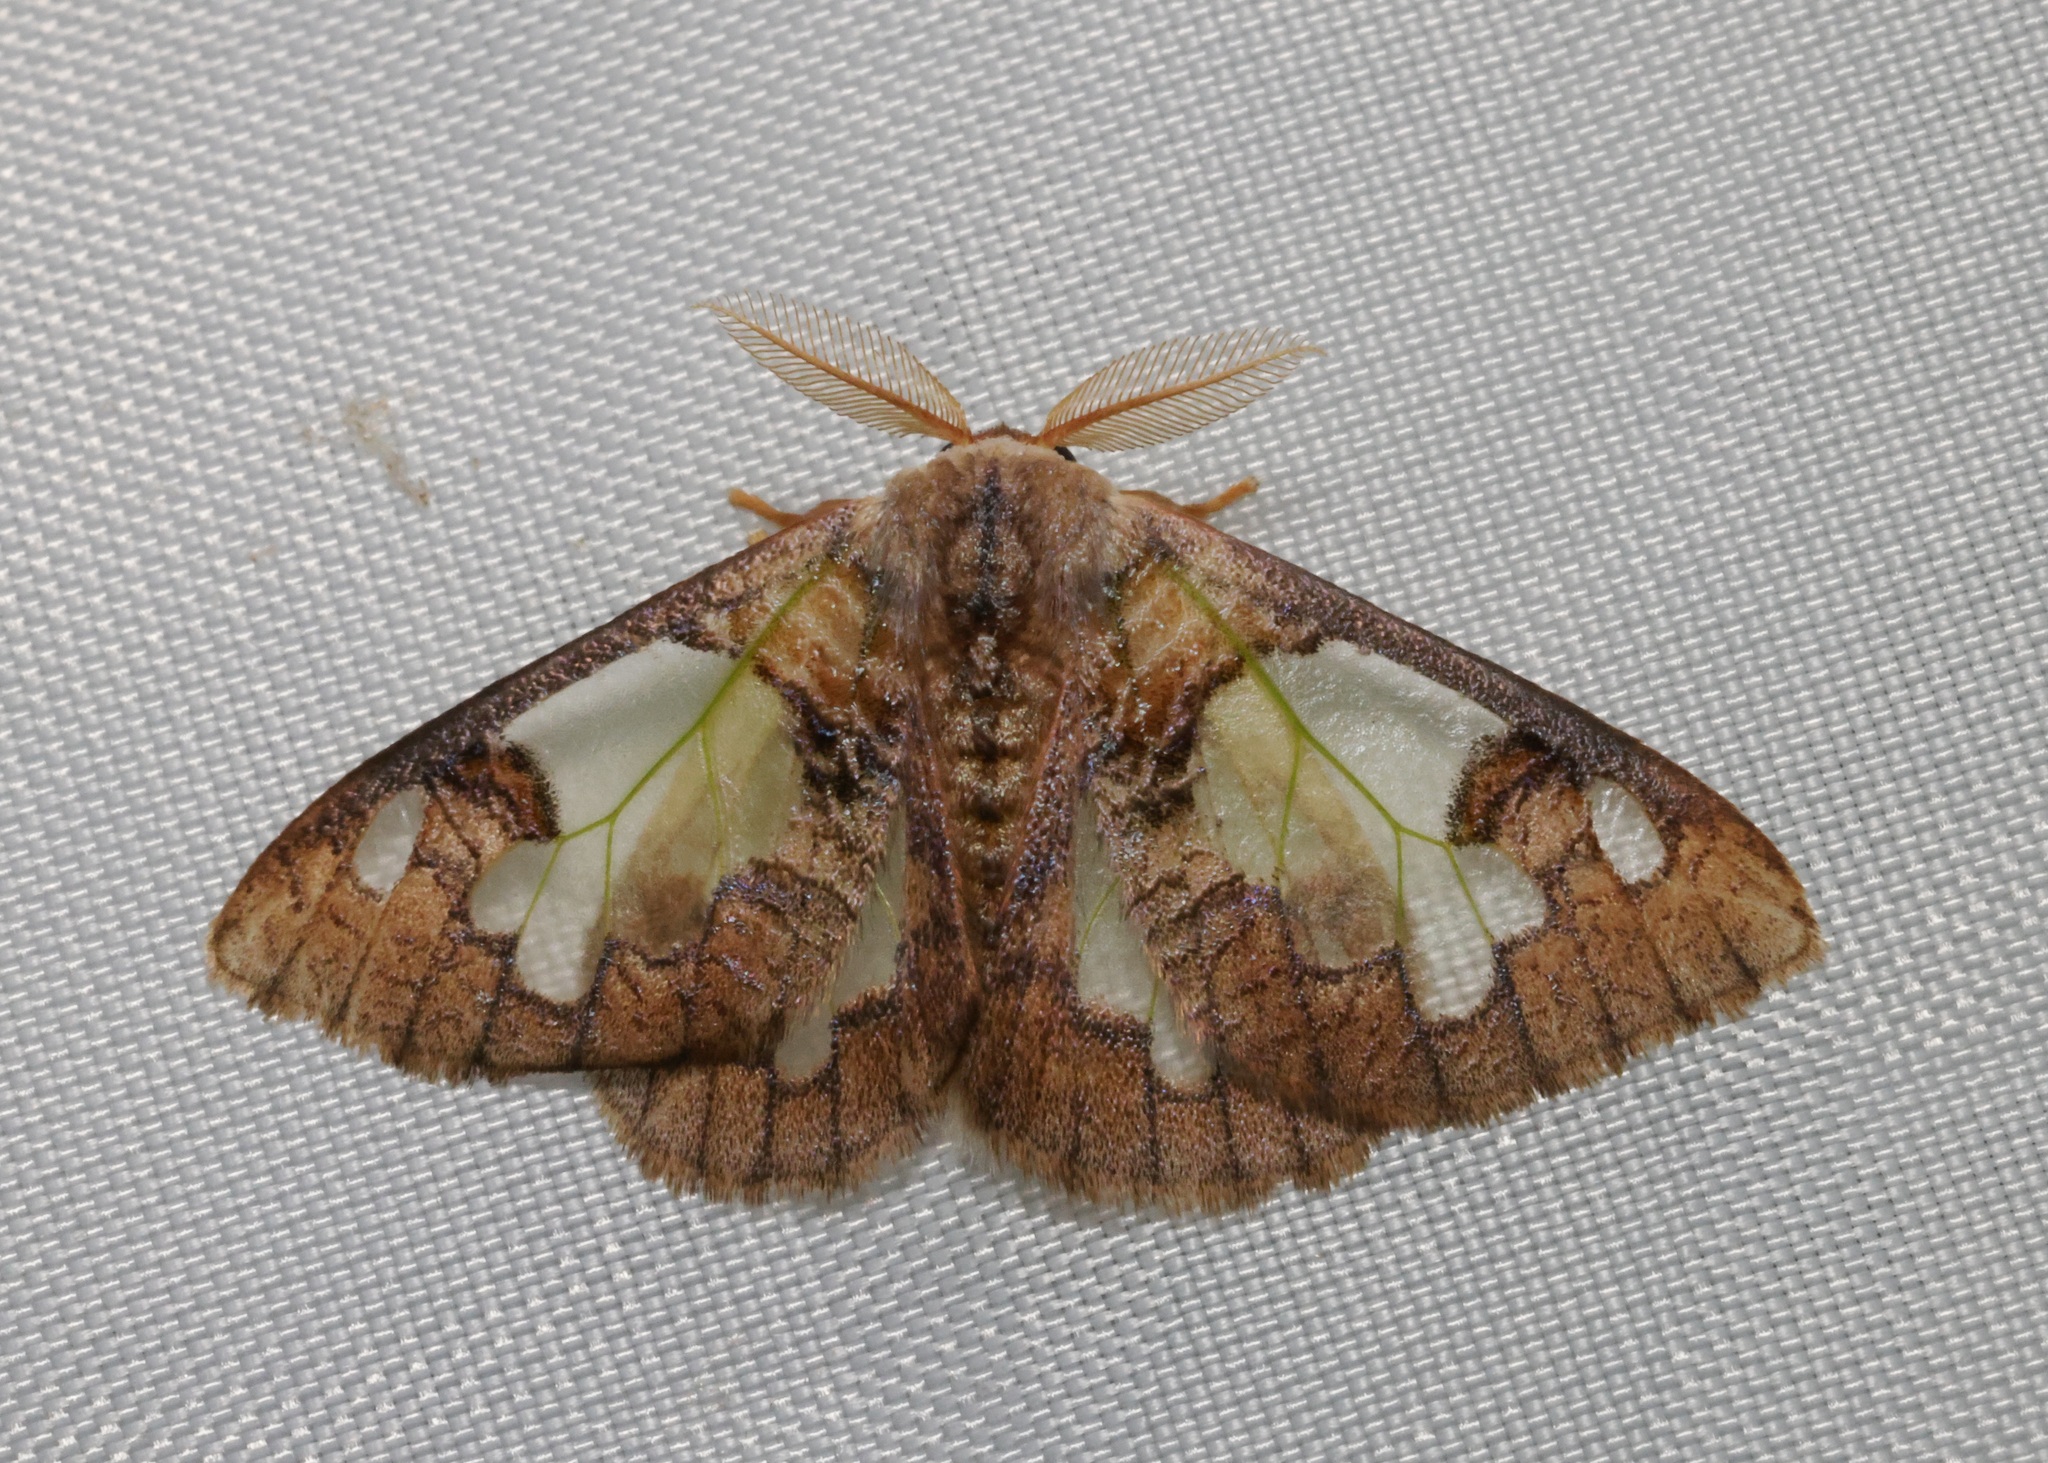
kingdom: Animalia
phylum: Arthropoda
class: Insecta
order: Lepidoptera
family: Erebidae
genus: Carriola
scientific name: Carriola seminsula
